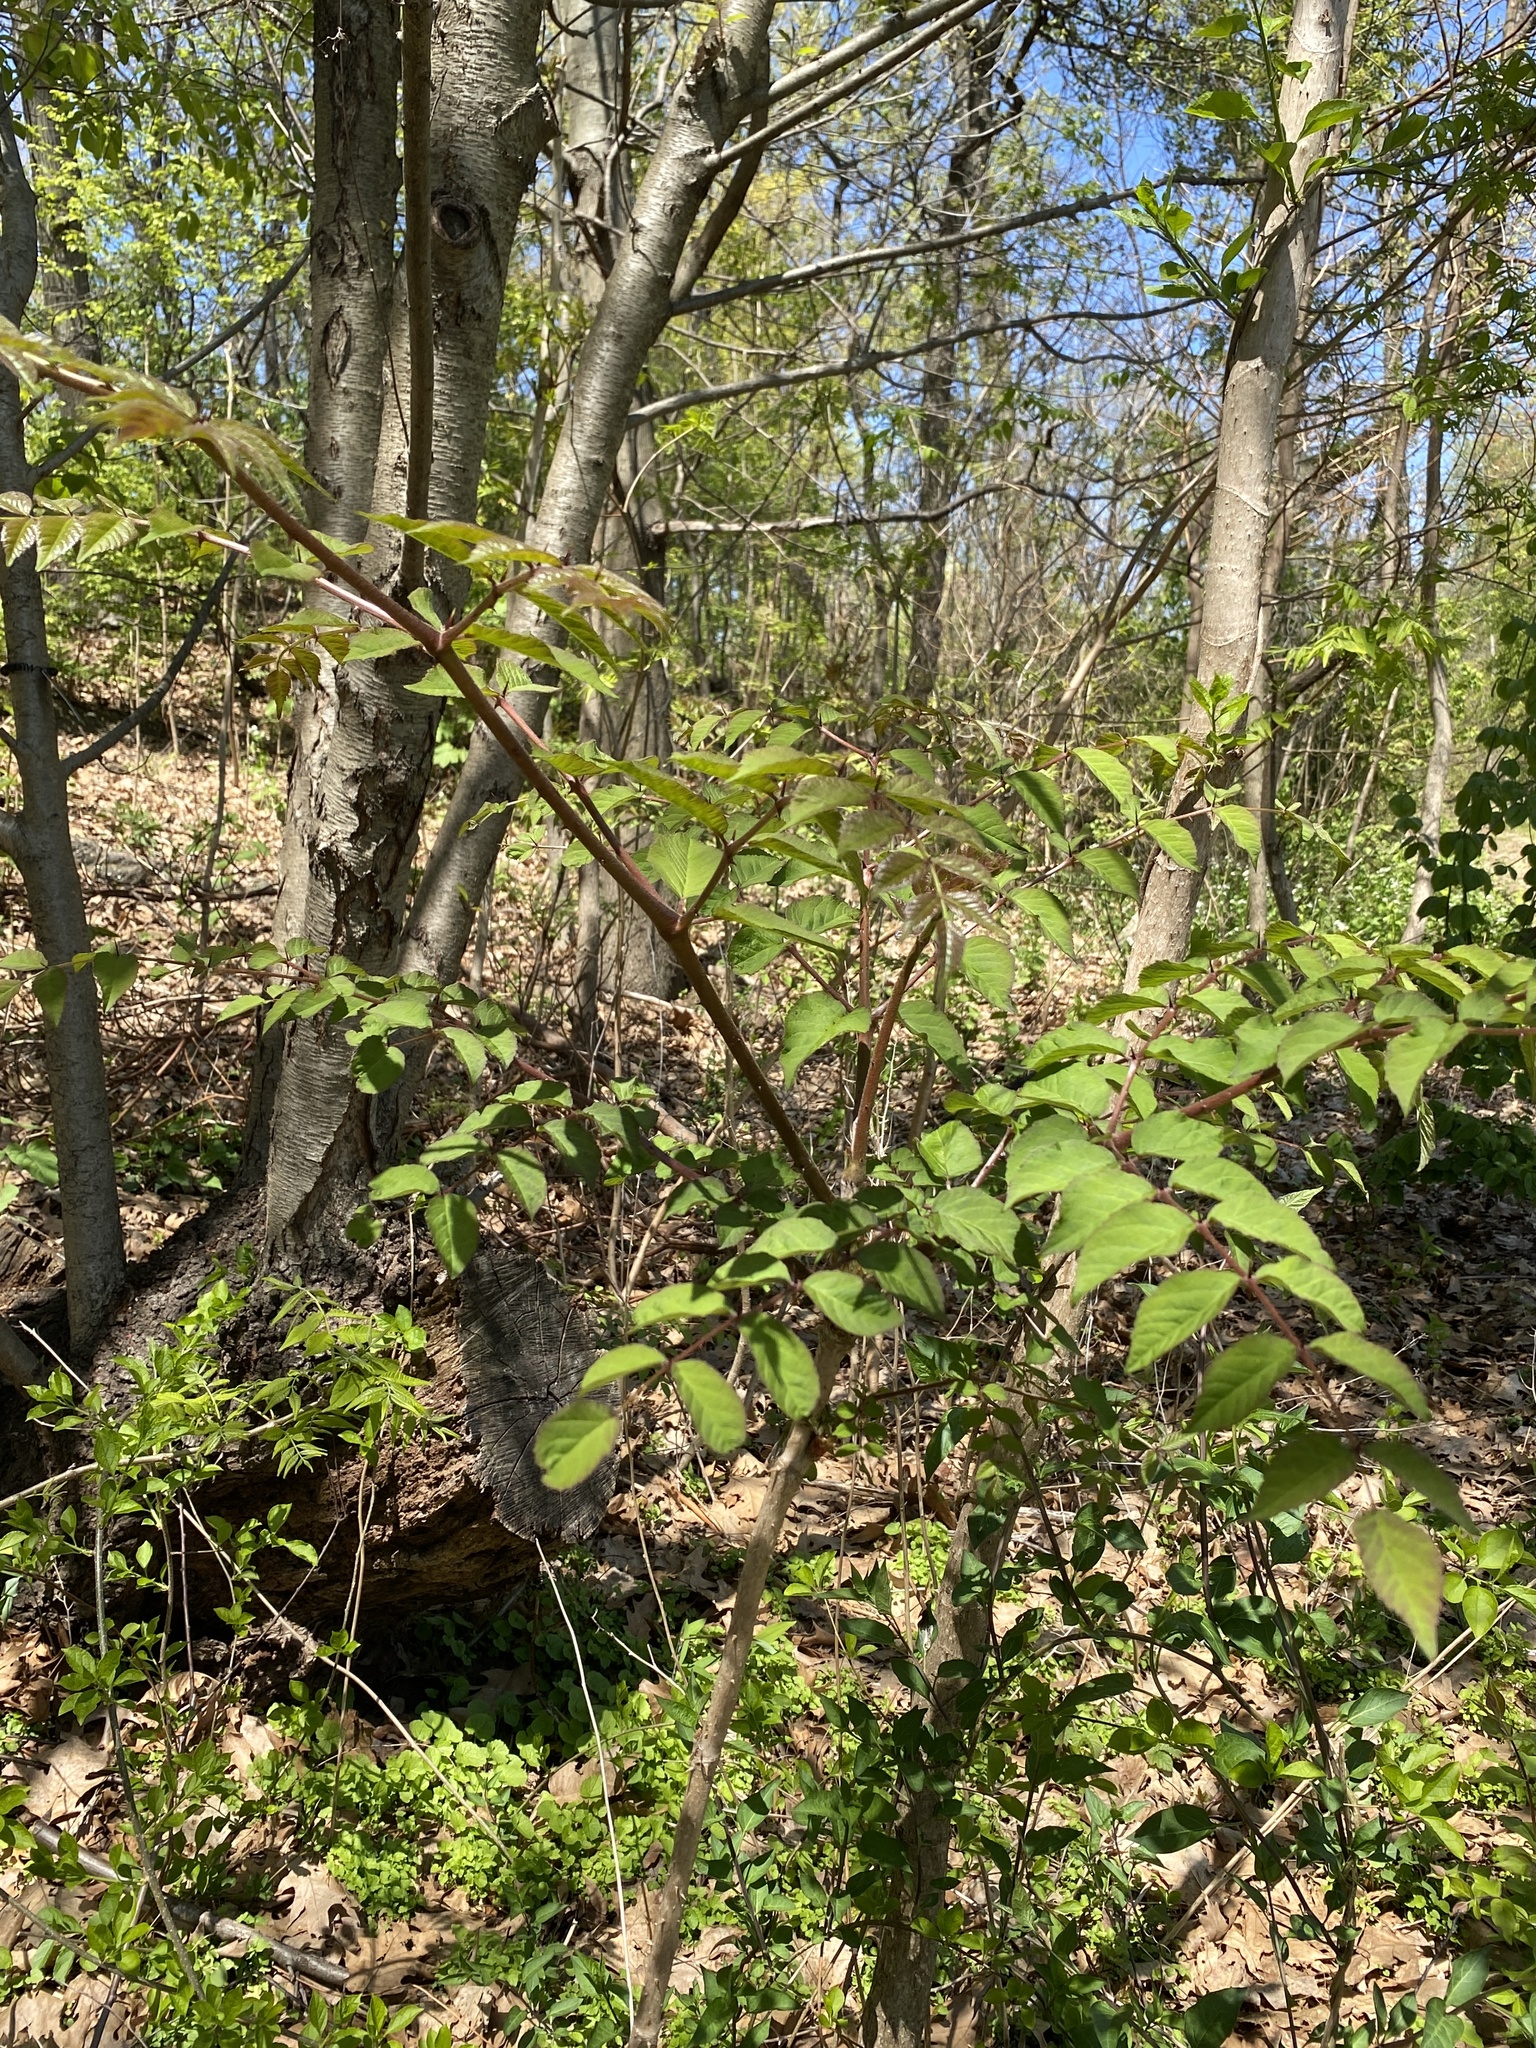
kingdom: Plantae
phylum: Tracheophyta
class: Magnoliopsida
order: Apiales
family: Araliaceae
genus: Aralia
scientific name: Aralia elata
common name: Japanese angelica-tree
